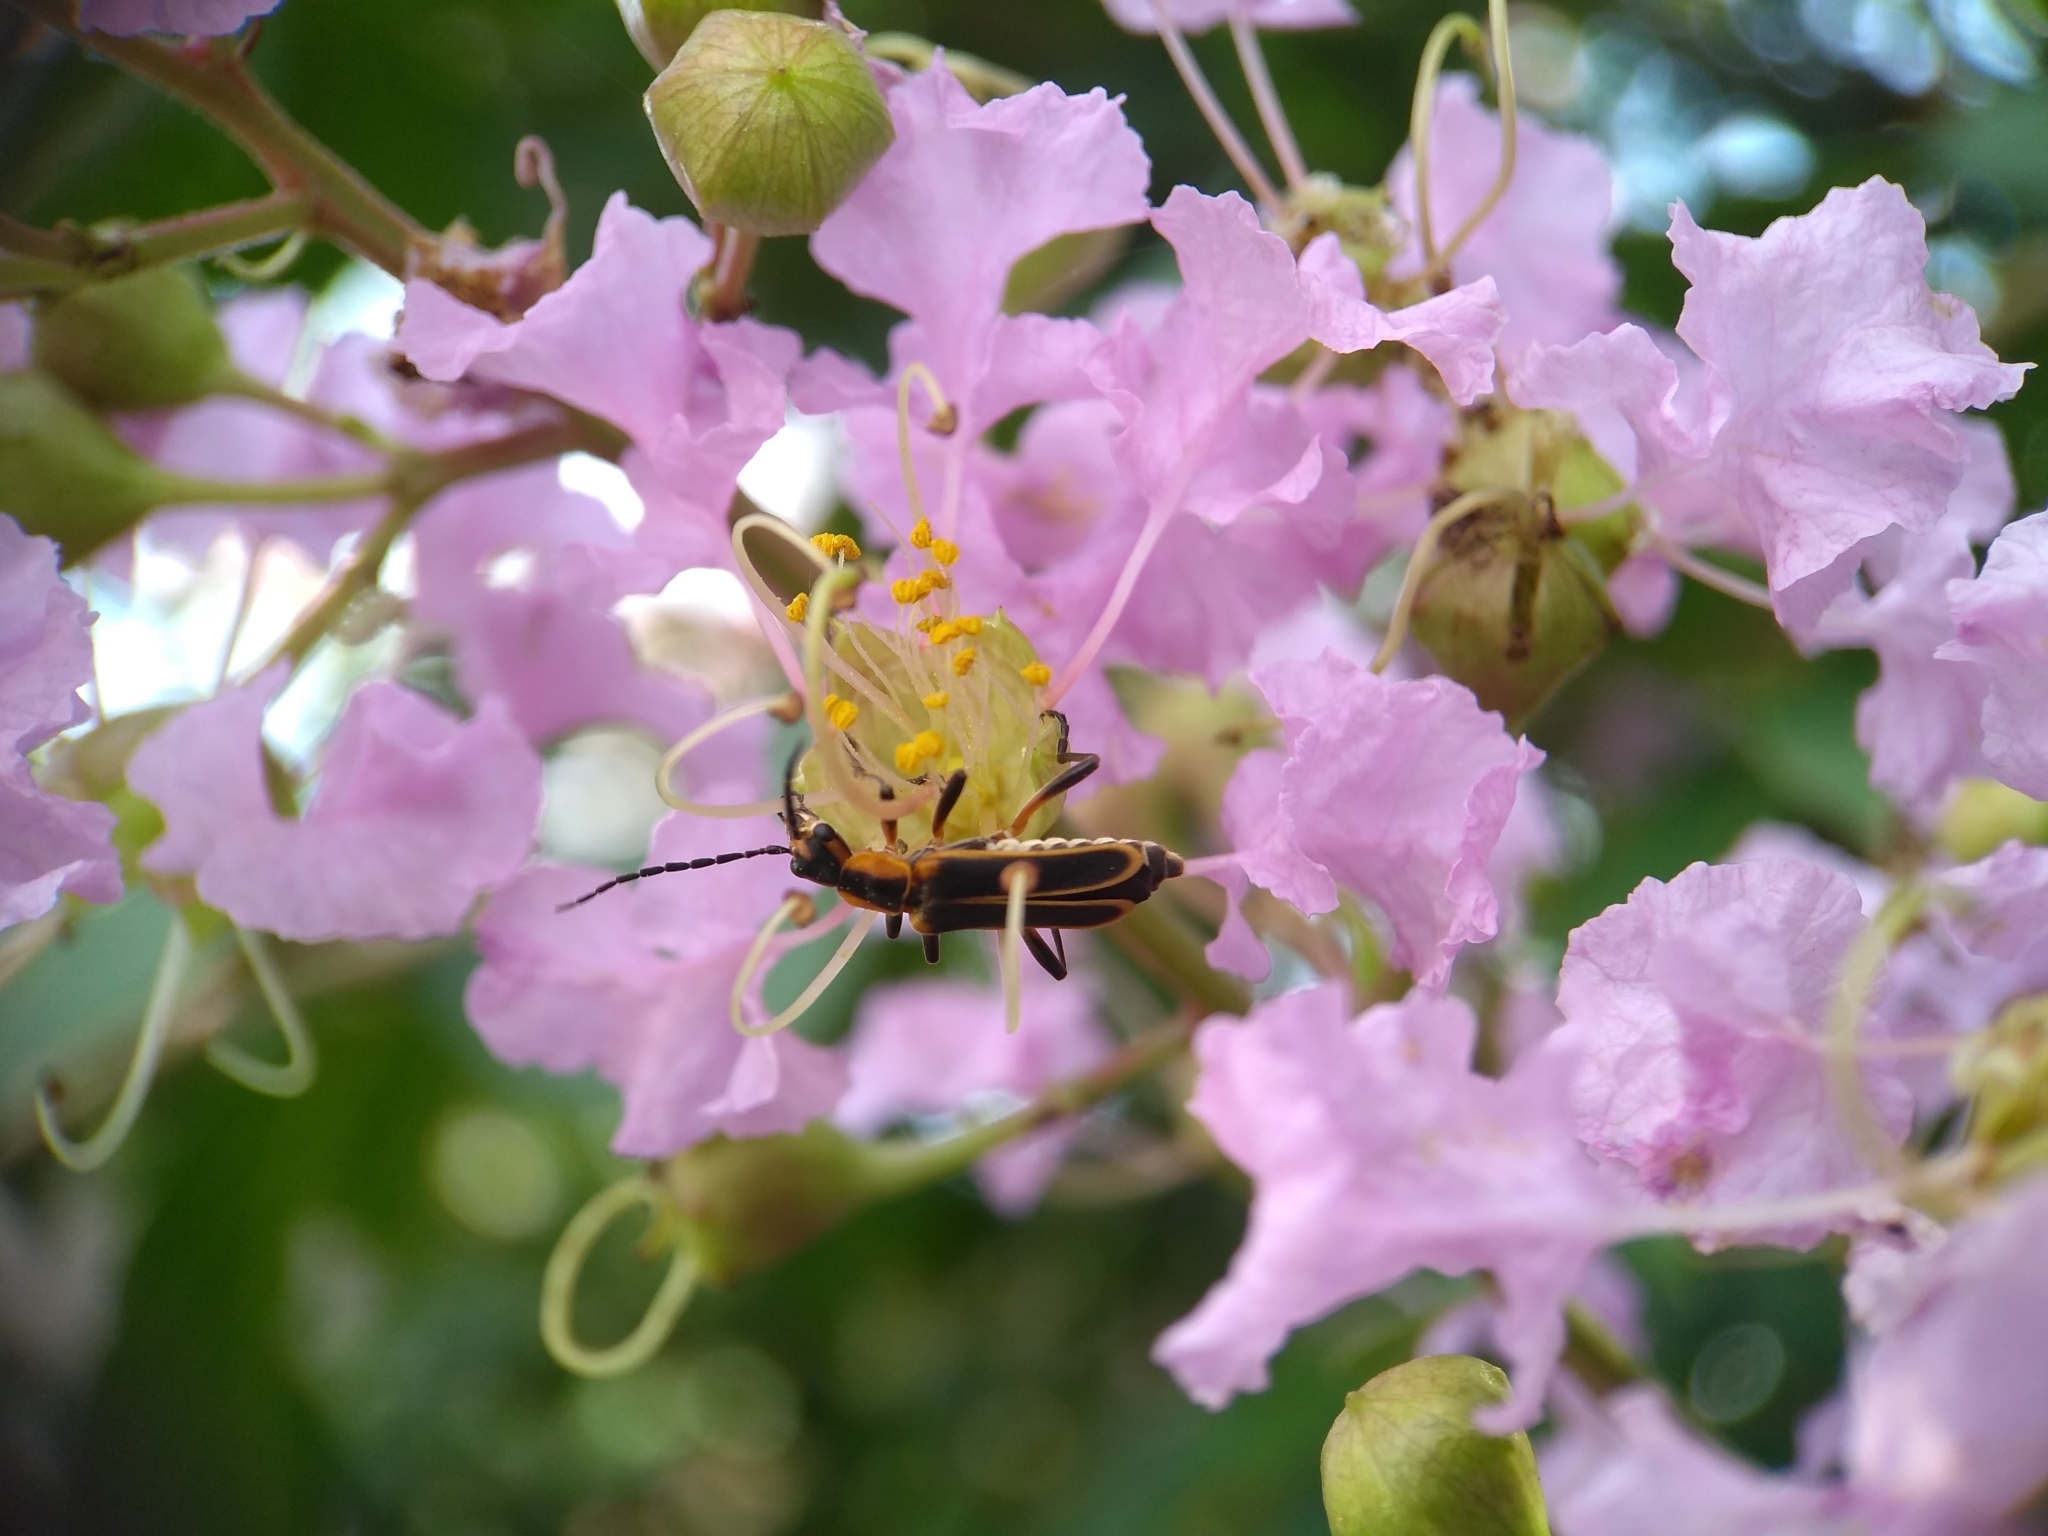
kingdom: Animalia
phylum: Arthropoda
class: Insecta
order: Coleoptera
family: Cantharidae
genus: Chauliognathus
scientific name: Chauliognathus marginatus
